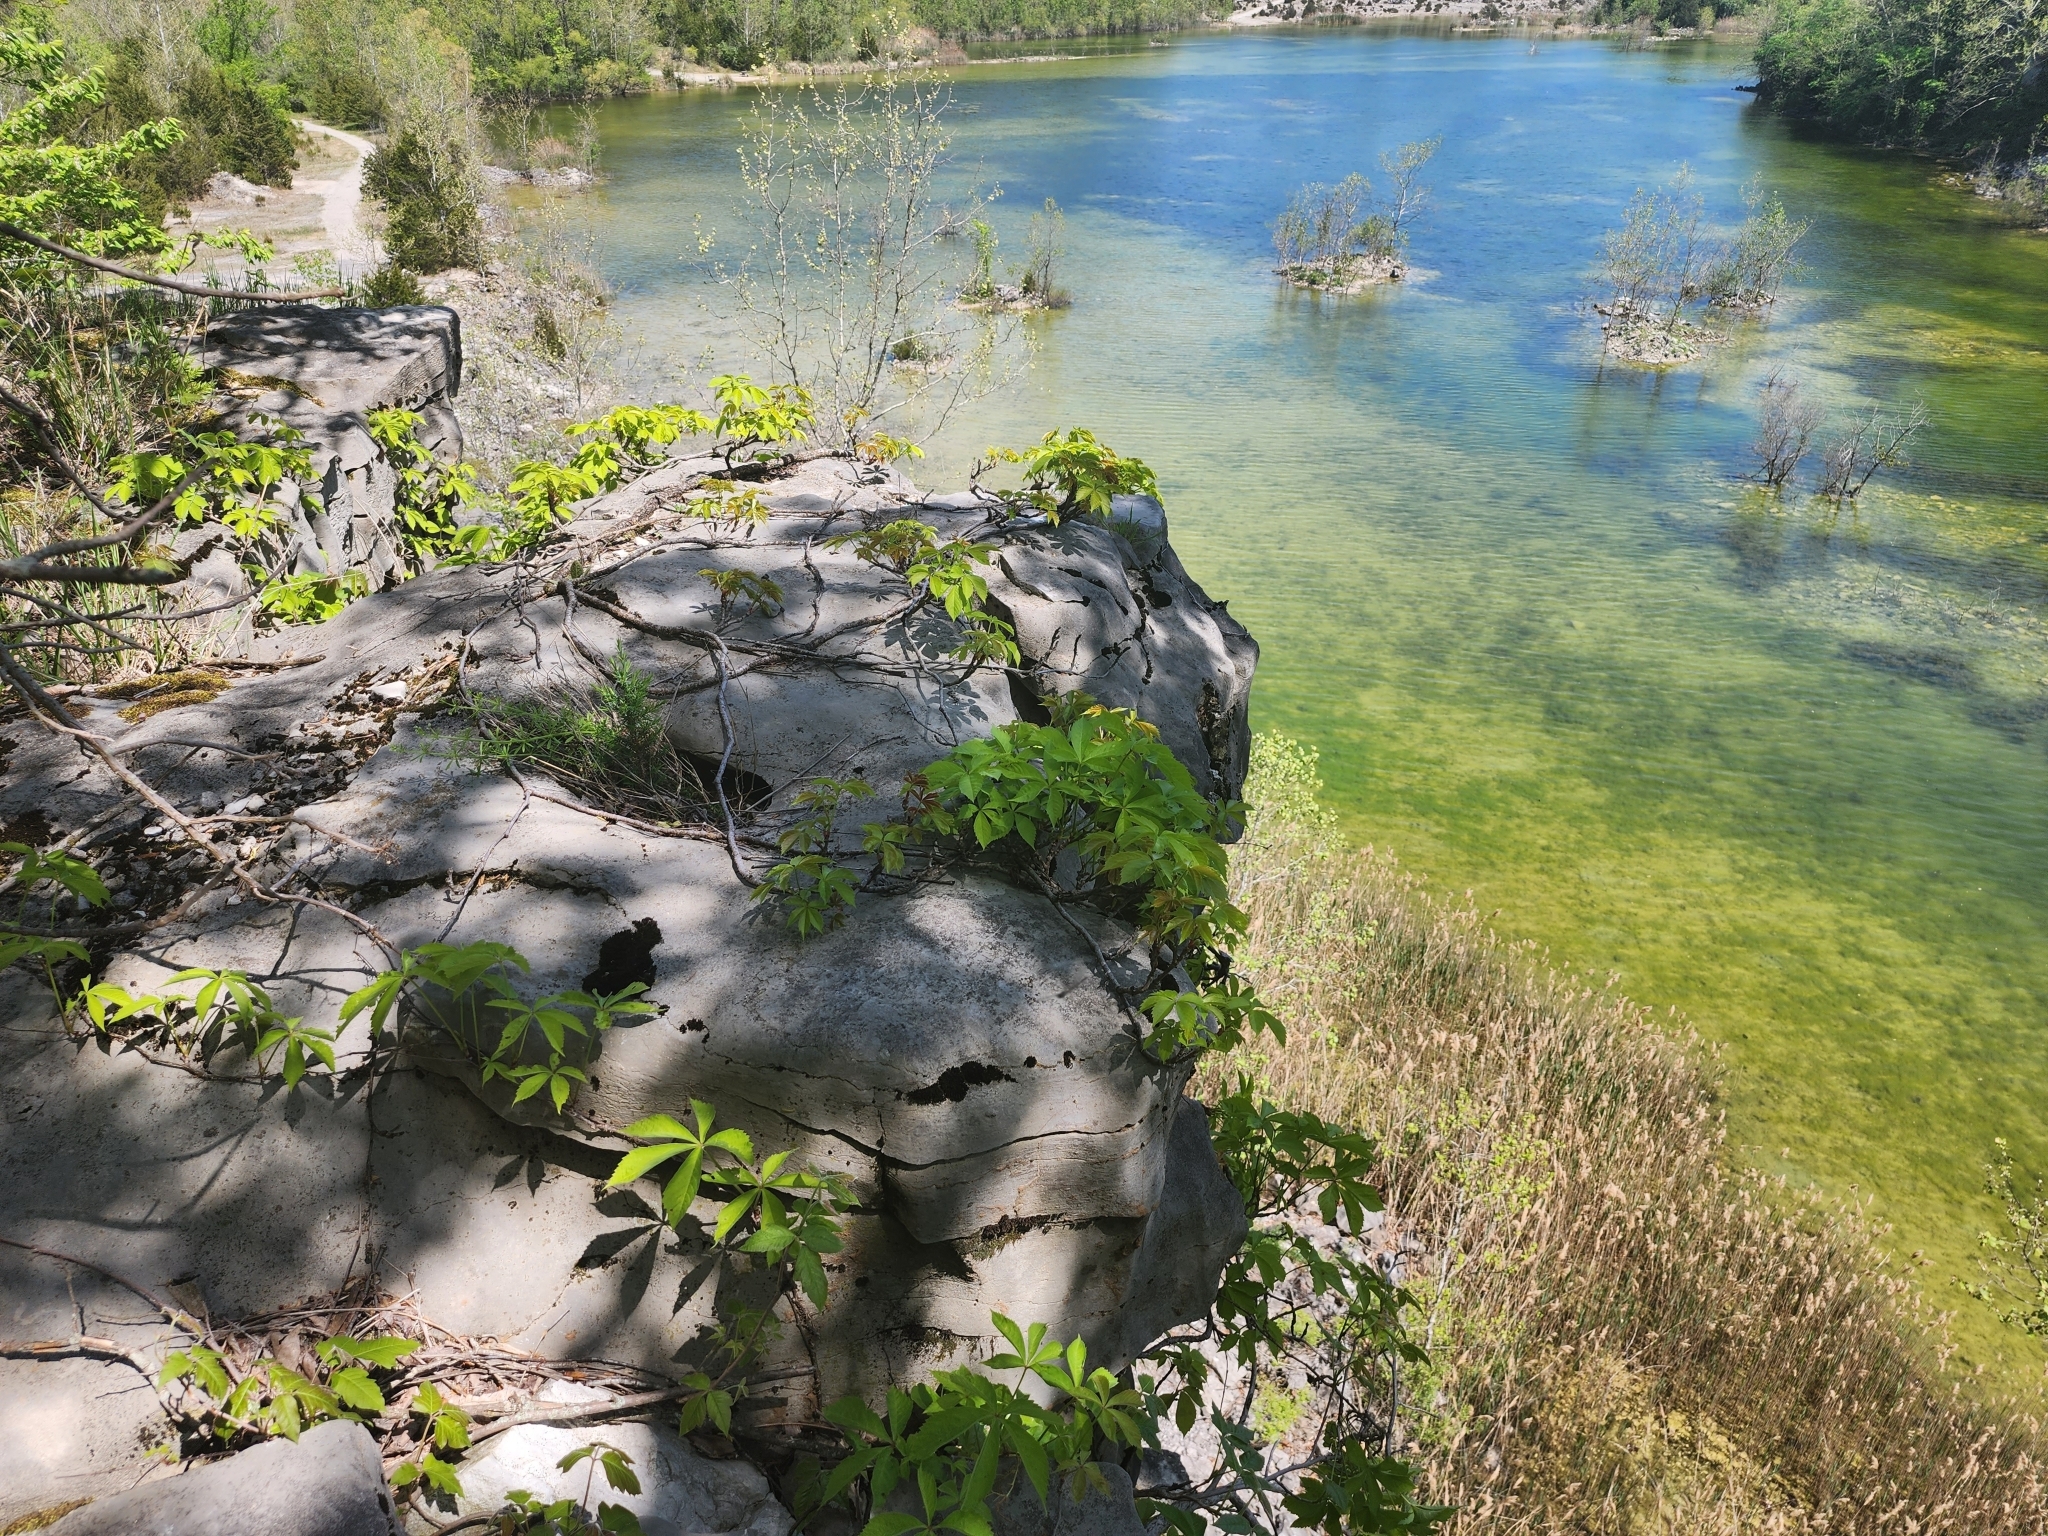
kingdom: Plantae
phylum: Tracheophyta
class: Magnoliopsida
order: Vitales
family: Vitaceae
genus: Parthenocissus
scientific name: Parthenocissus quinquefolia
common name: Virginia-creeper
